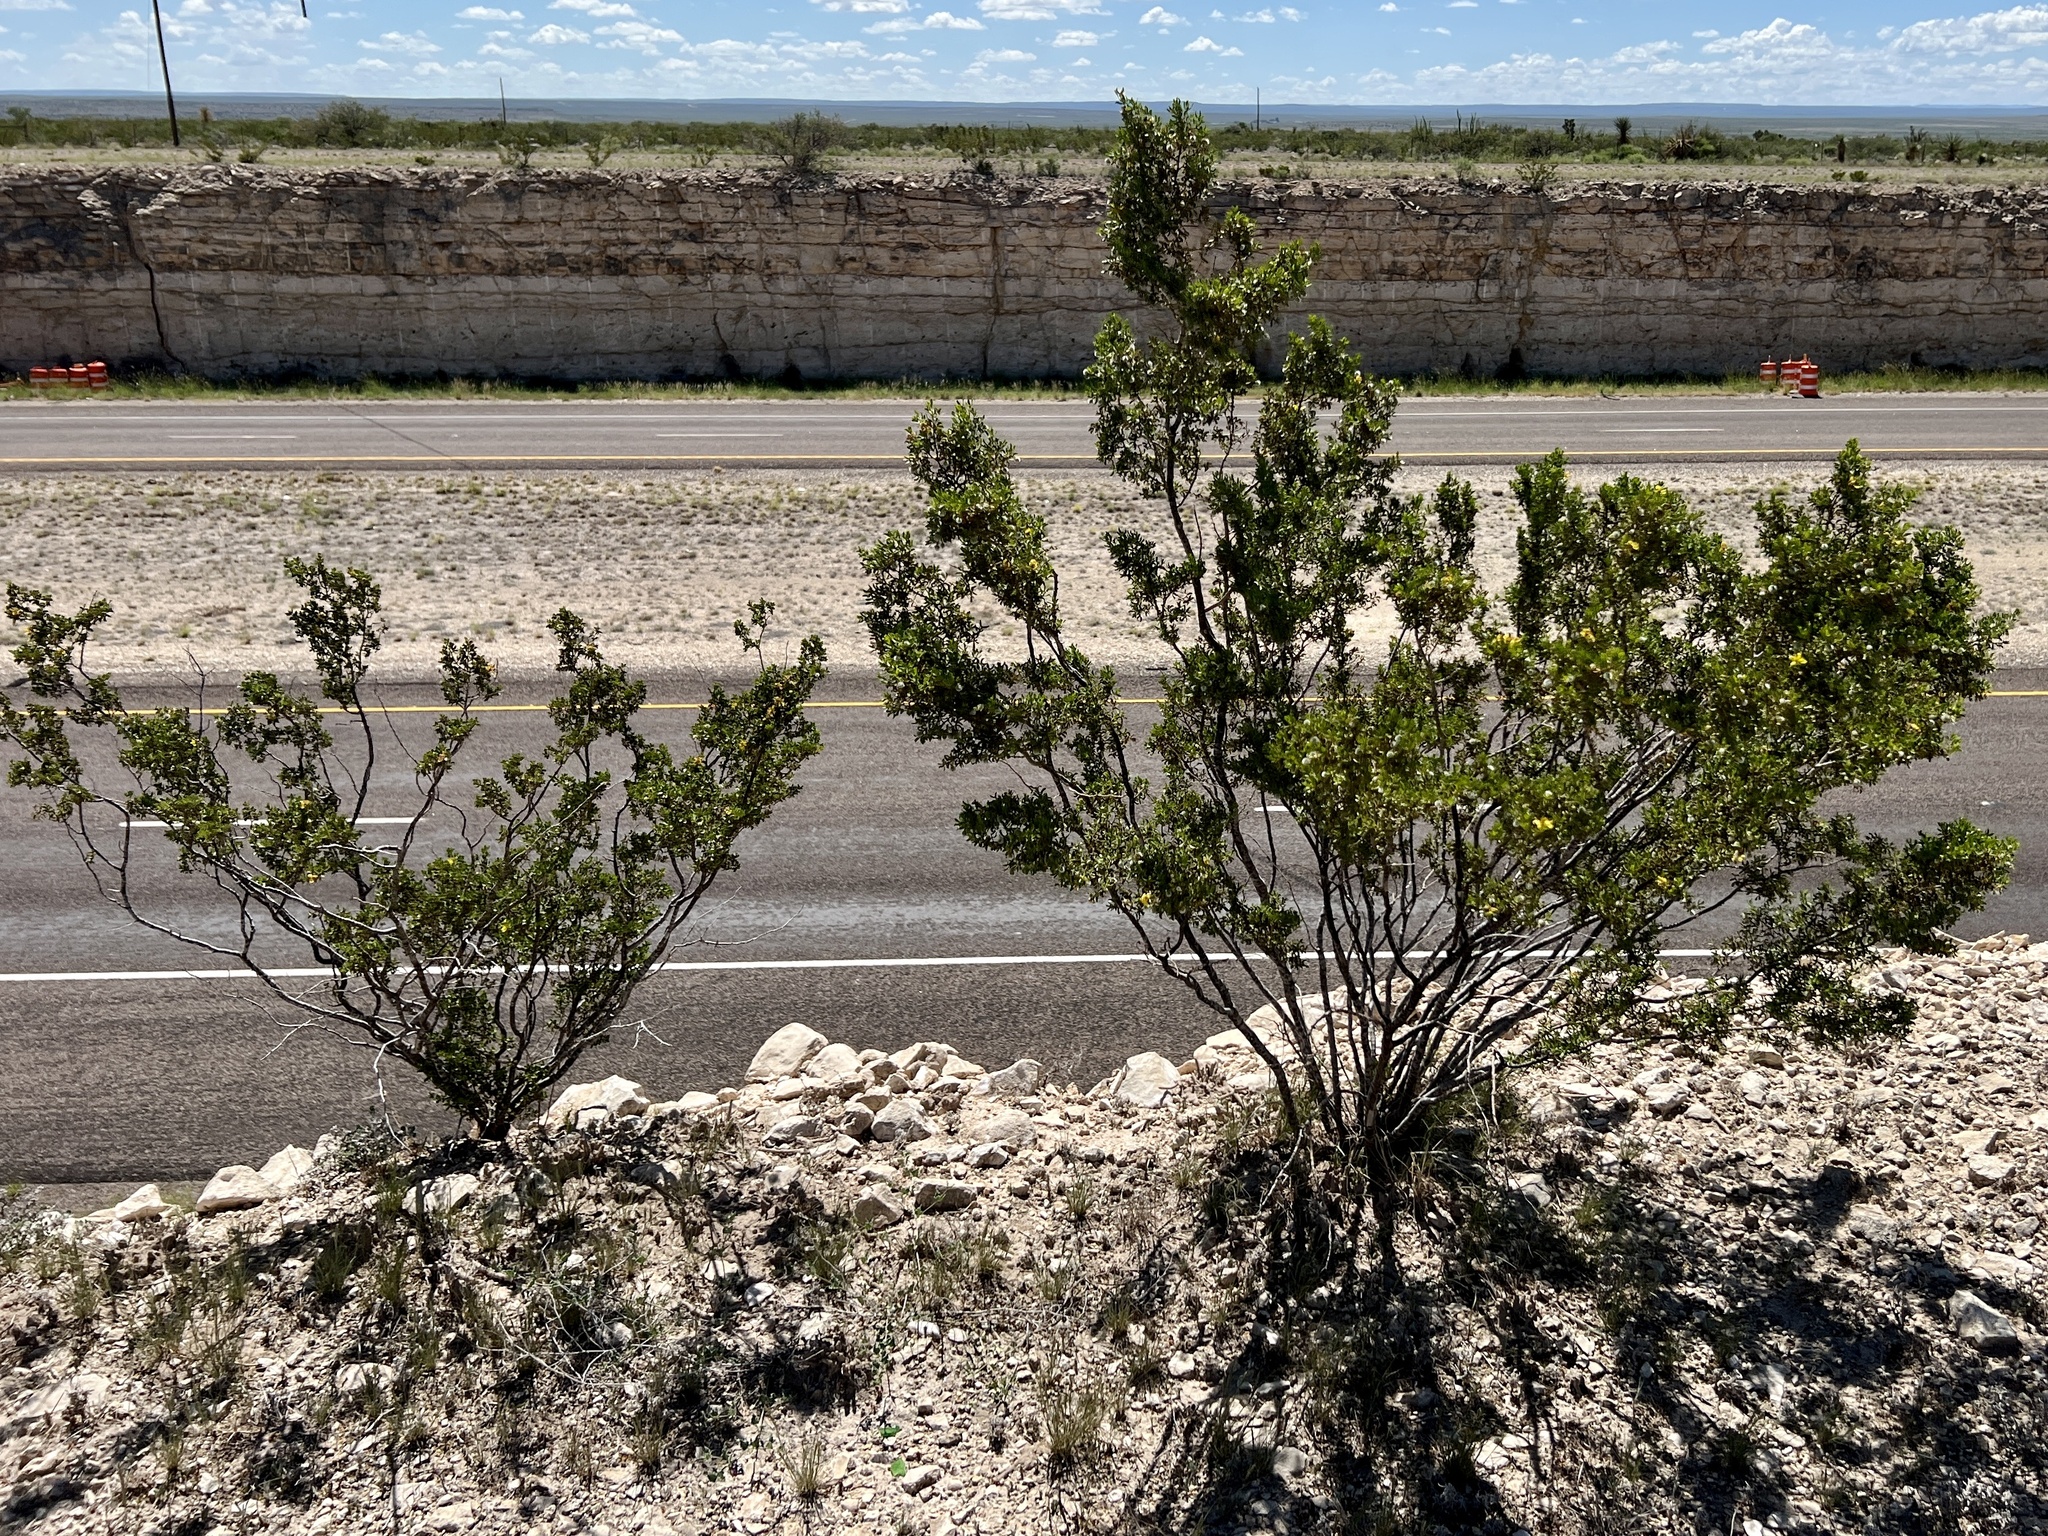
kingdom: Plantae
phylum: Tracheophyta
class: Magnoliopsida
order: Zygophyllales
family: Zygophyllaceae
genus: Larrea
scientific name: Larrea tridentata
